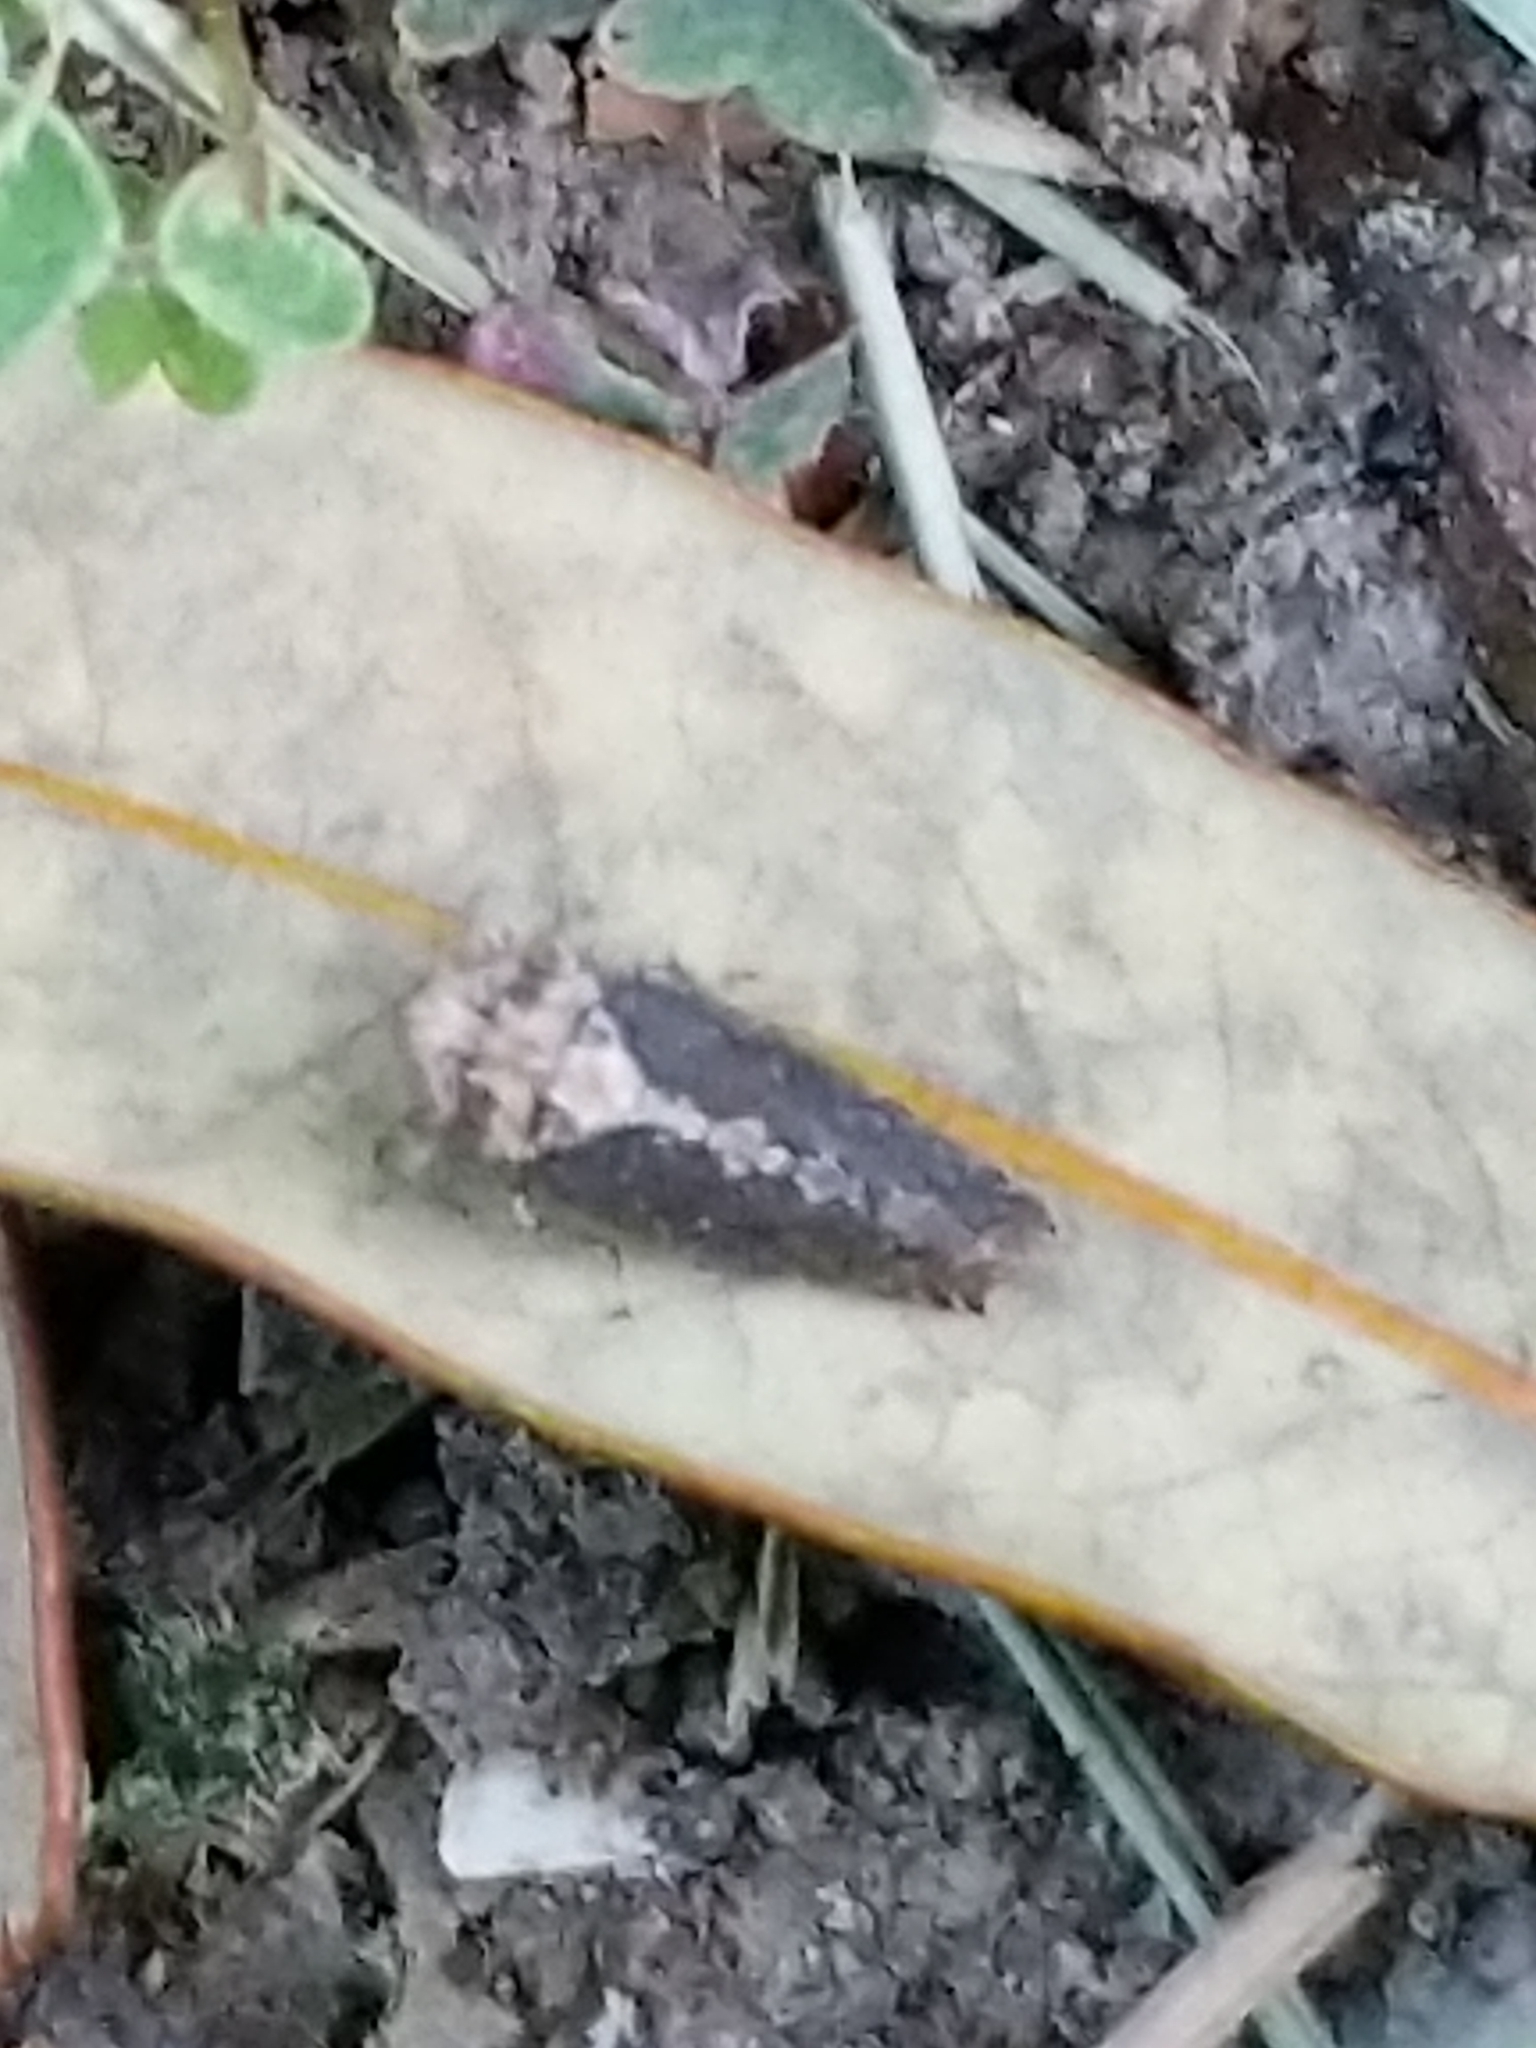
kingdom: Animalia
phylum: Arthropoda
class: Insecta
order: Hemiptera
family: Cicadellidae
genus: Excultanus
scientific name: Excultanus excultus
